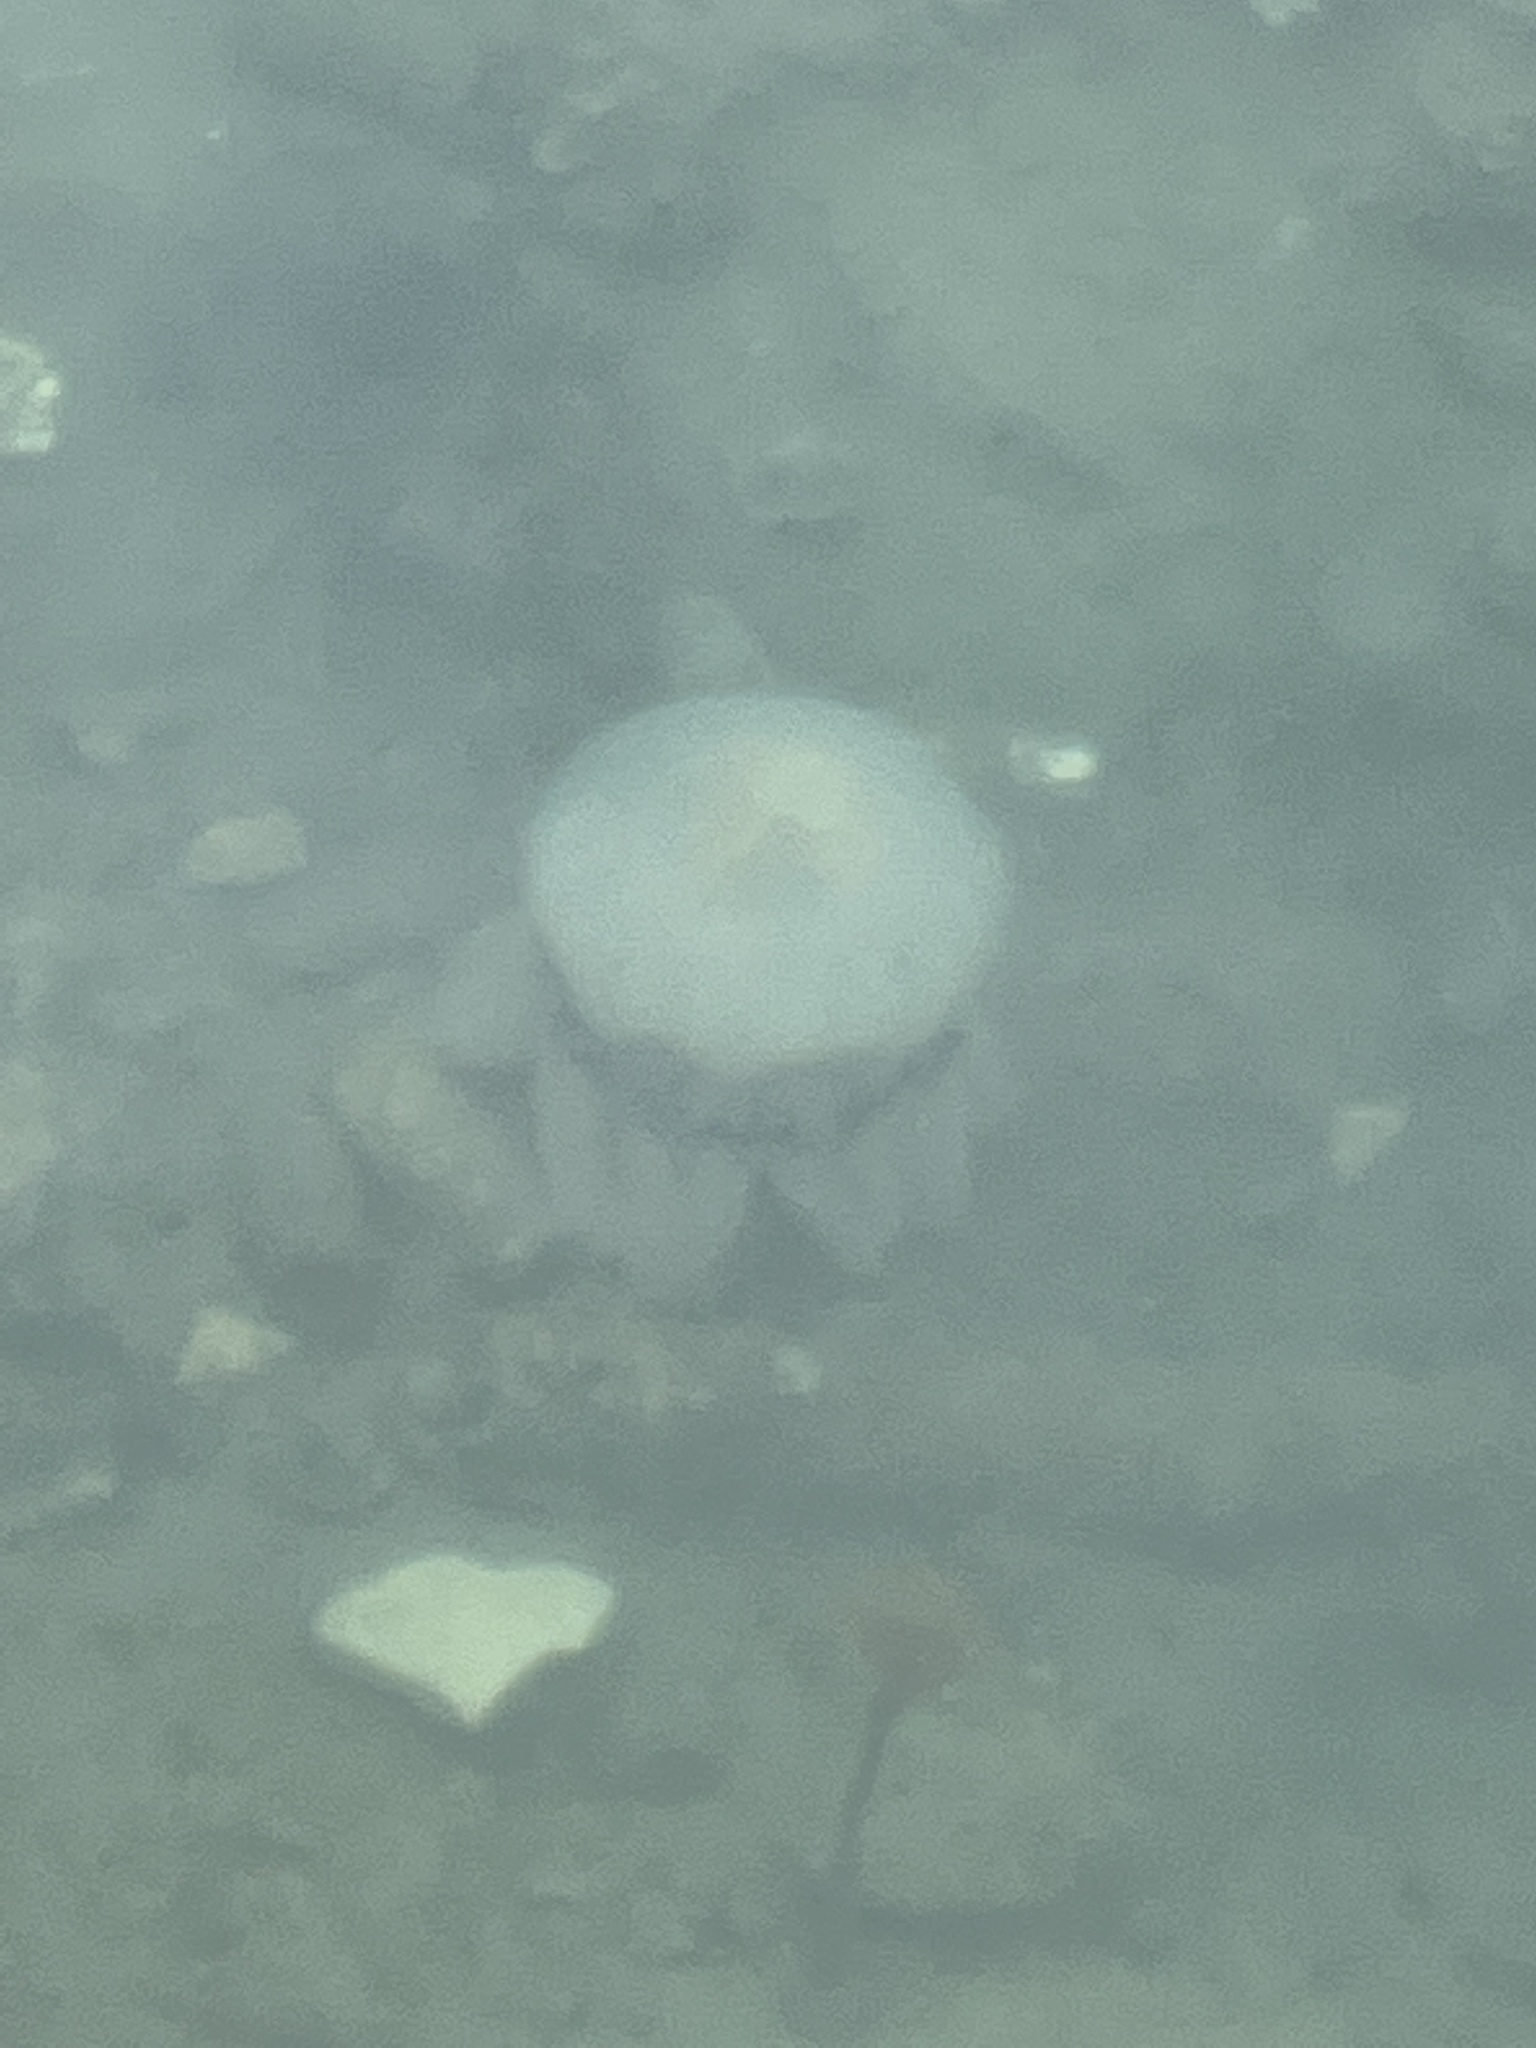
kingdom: Animalia
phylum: Cnidaria
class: Scyphozoa
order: Rhizostomeae
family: Rhizostomatidae
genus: Rhizostoma
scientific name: Rhizostoma pulmo
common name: Barrel jellyfish
